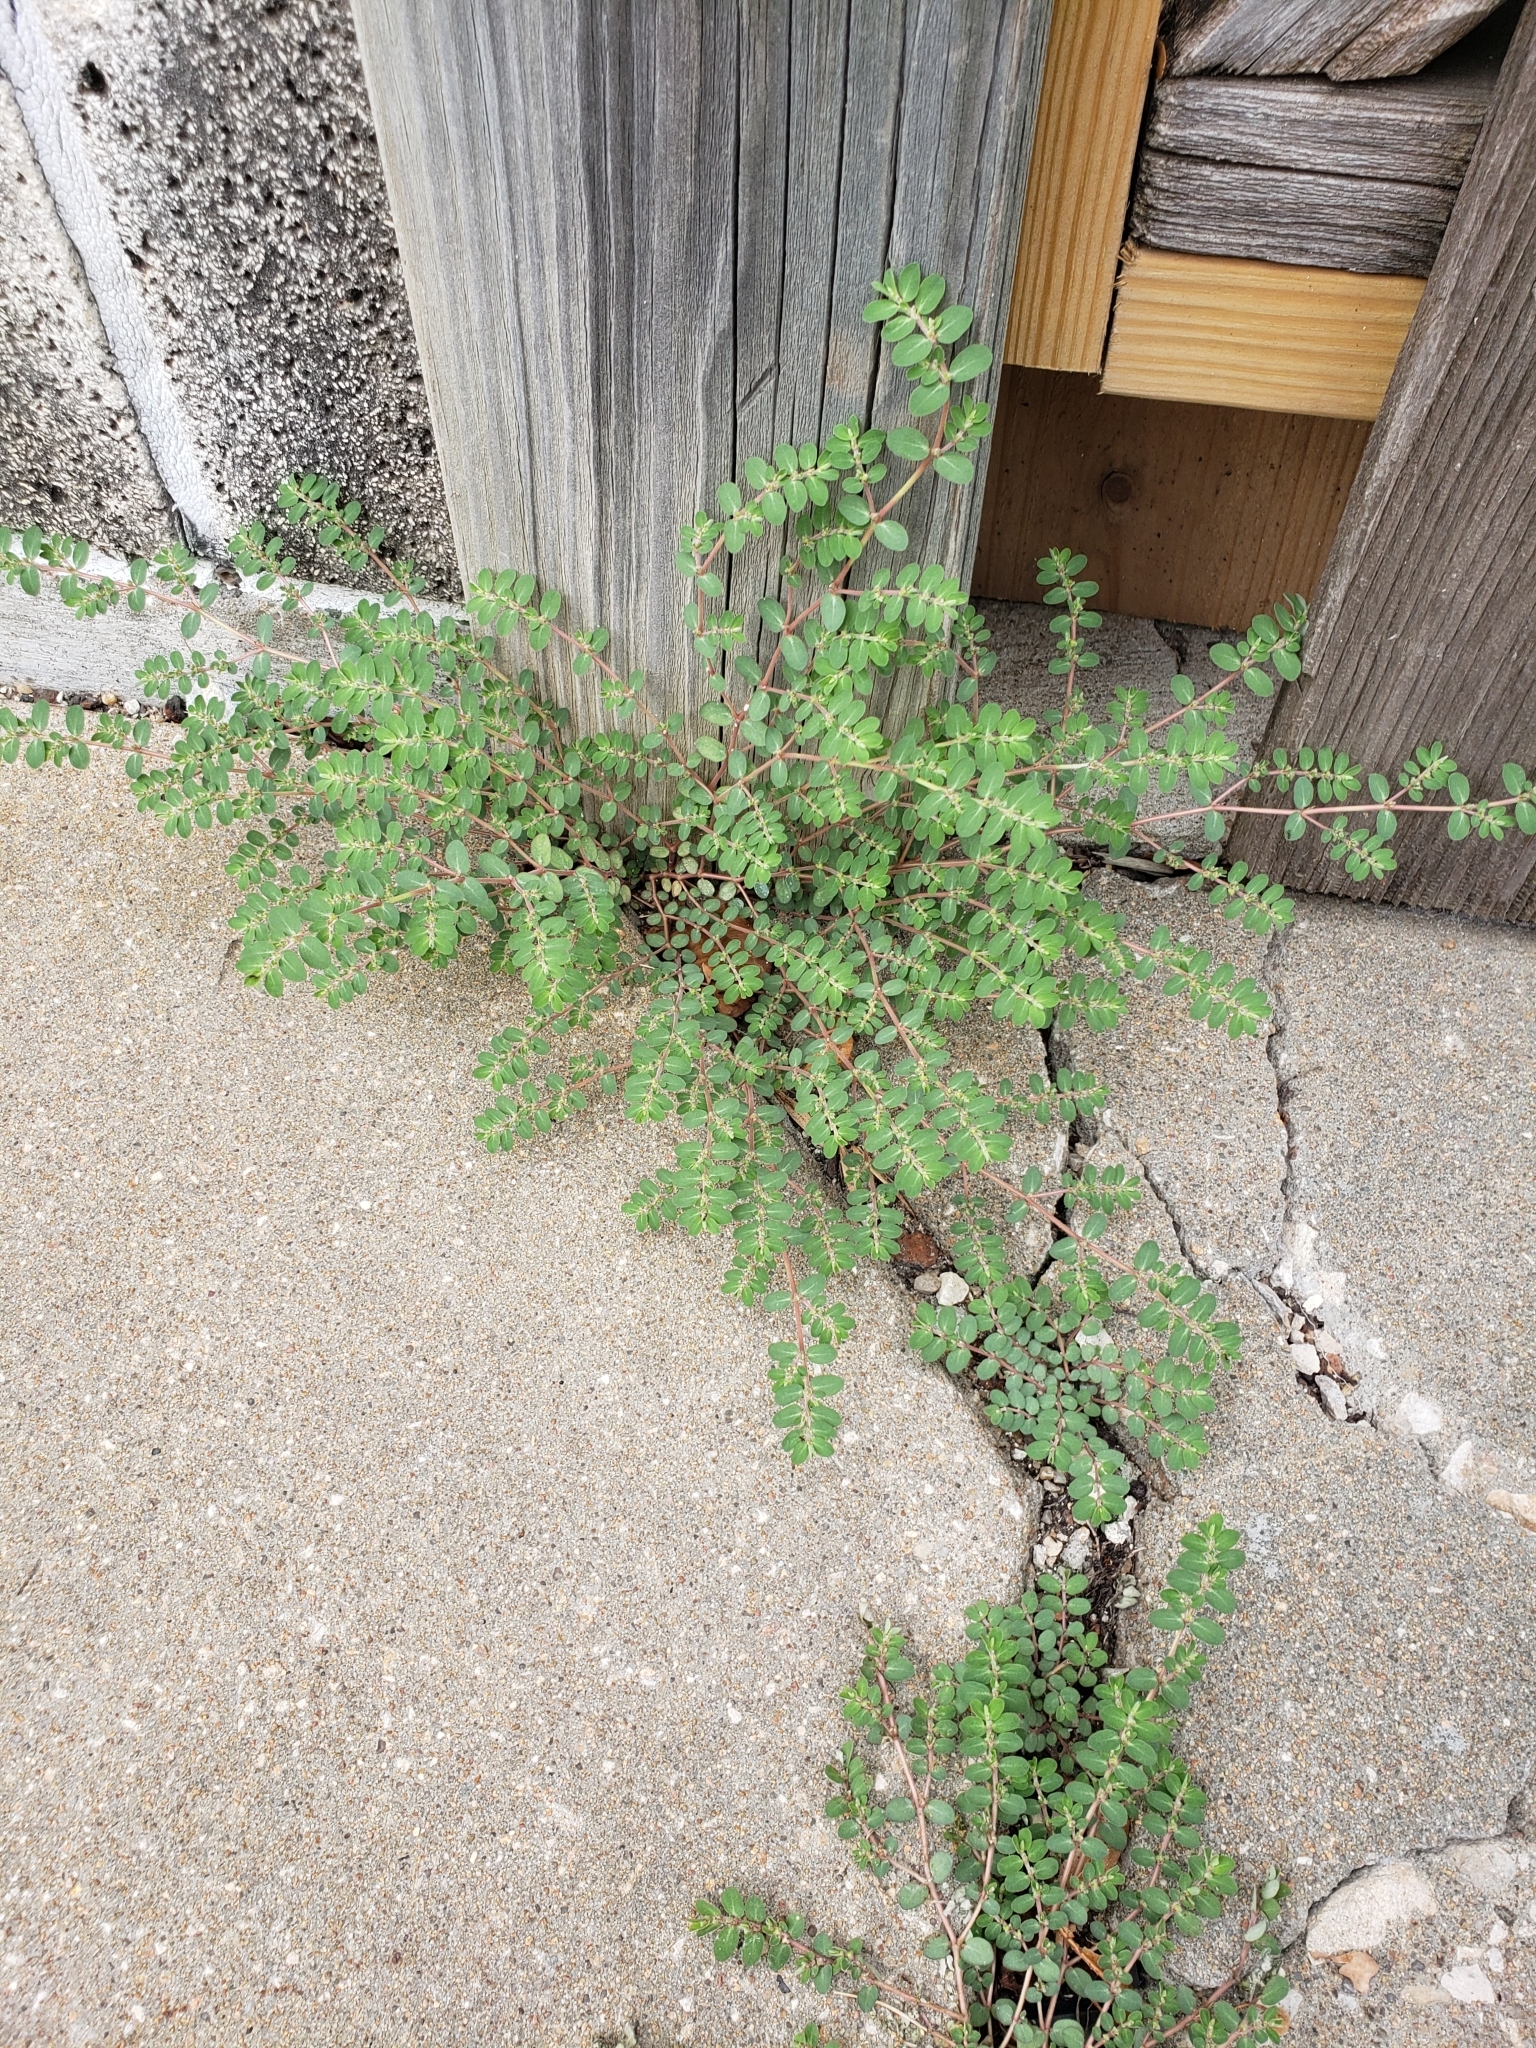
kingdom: Plantae
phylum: Tracheophyta
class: Magnoliopsida
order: Malpighiales
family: Euphorbiaceae
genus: Euphorbia
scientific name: Euphorbia prostrata
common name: Prostrate sandmat
